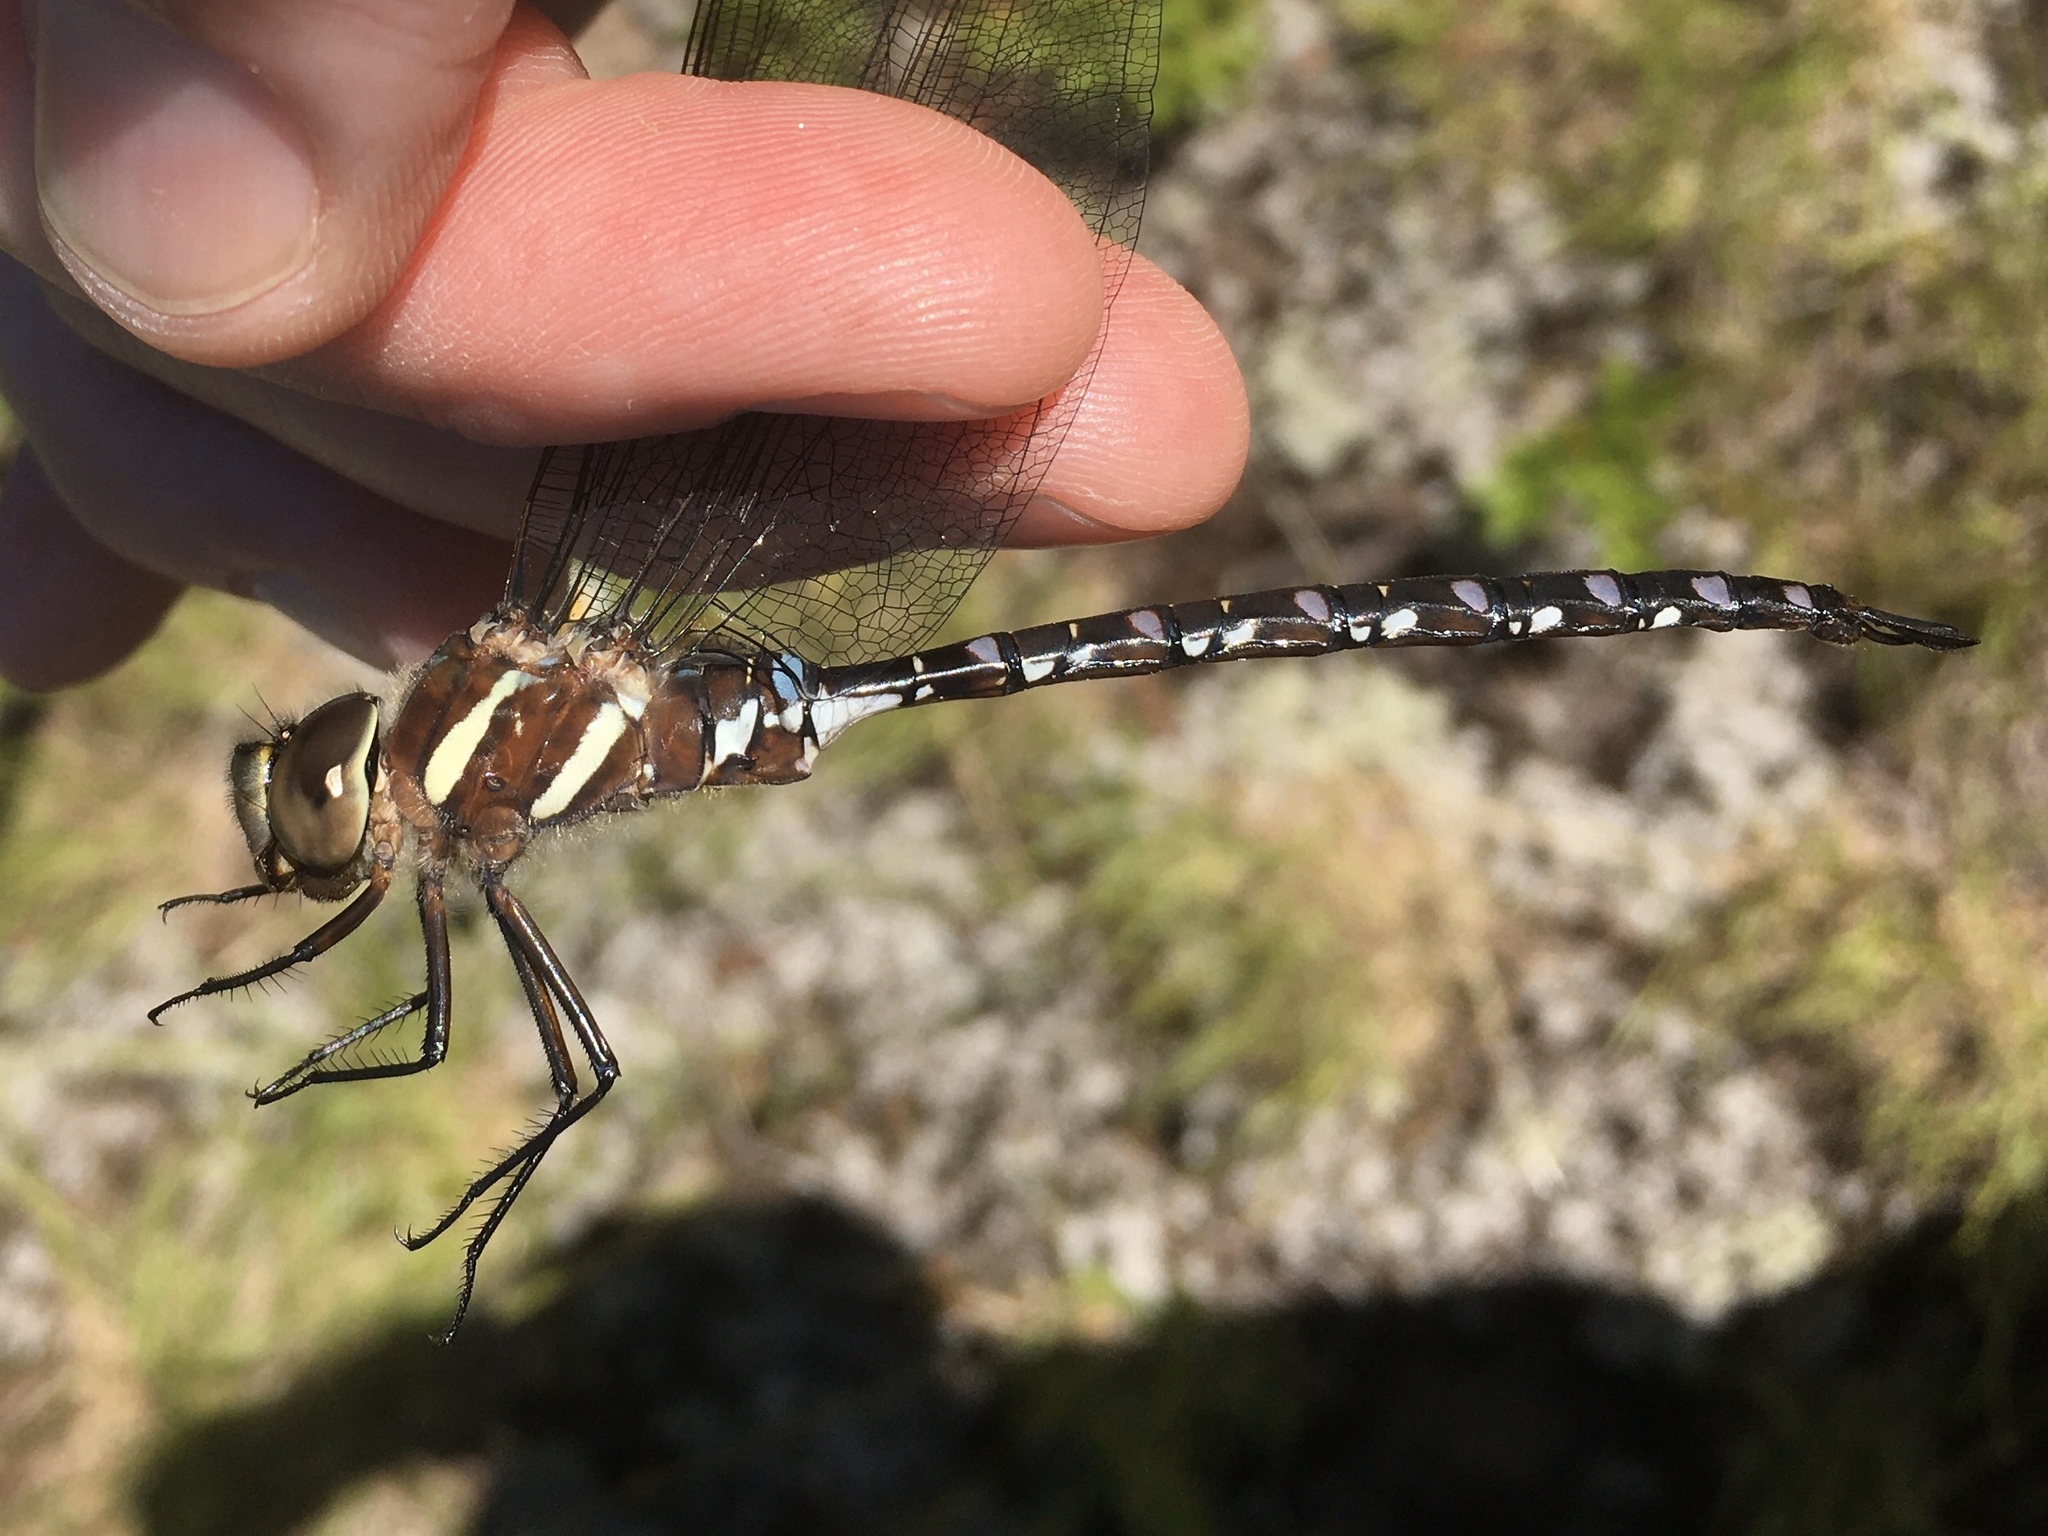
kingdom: Animalia
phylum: Arthropoda
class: Insecta
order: Odonata
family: Aeshnidae
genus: Aeshna
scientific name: Aeshna tuberculifera
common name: Aeschne à tubercules
